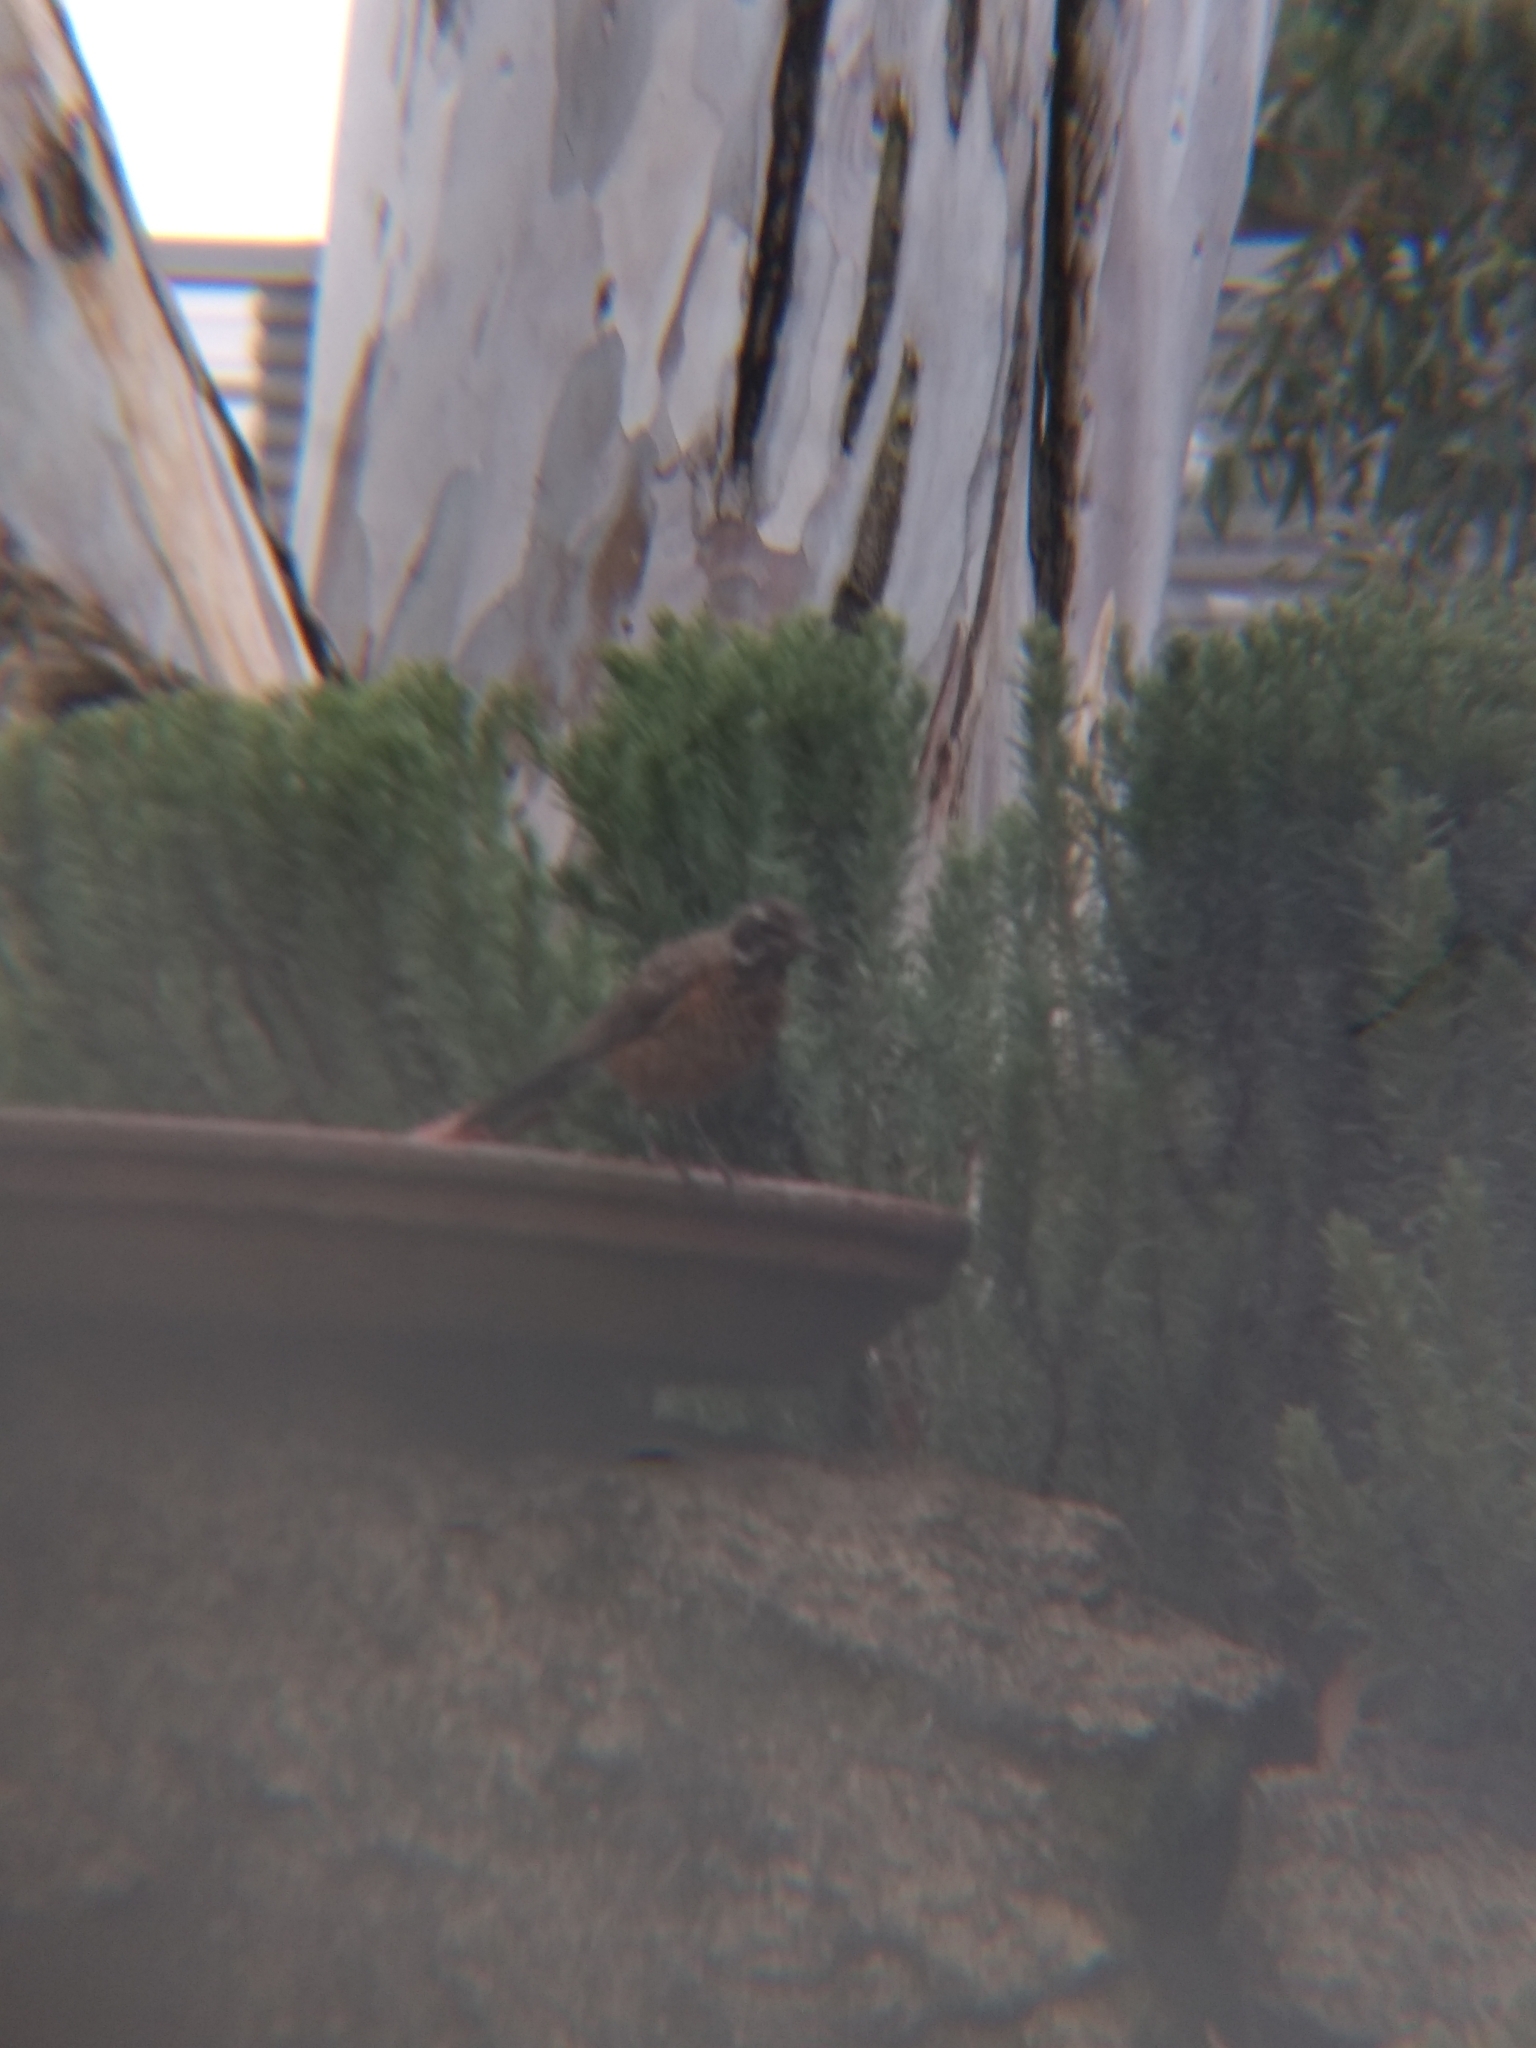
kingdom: Animalia
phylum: Chordata
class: Aves
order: Passeriformes
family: Turdidae
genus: Turdus
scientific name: Turdus migratorius
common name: American robin
